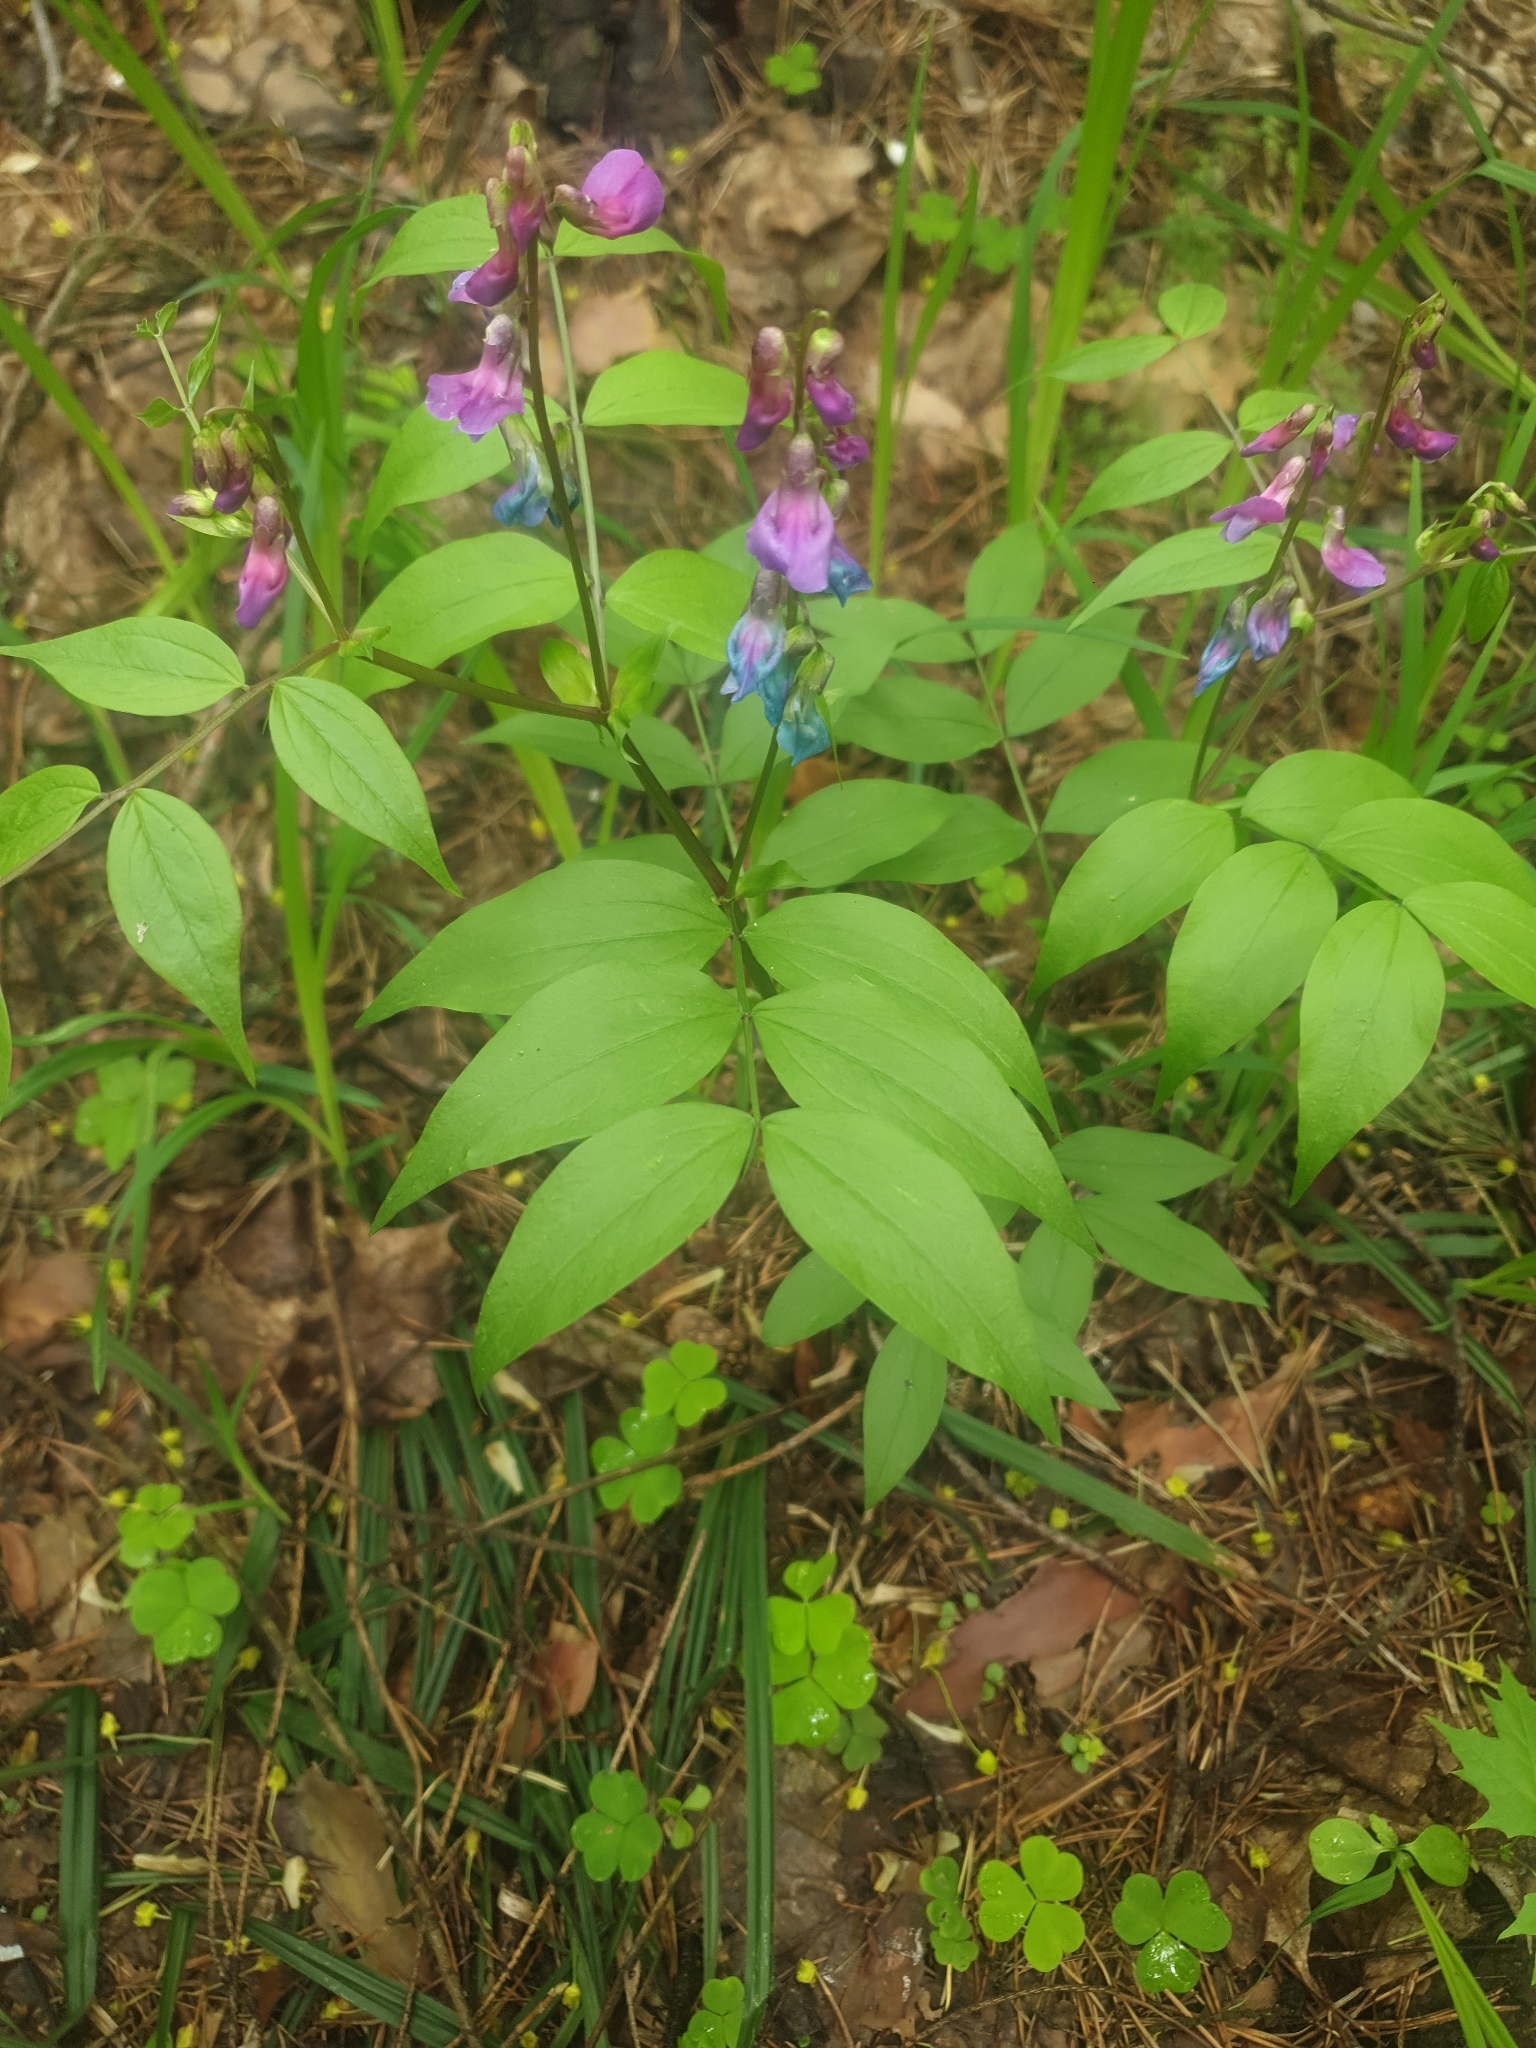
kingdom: Plantae
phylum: Tracheophyta
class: Magnoliopsida
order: Fabales
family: Fabaceae
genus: Lathyrus
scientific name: Lathyrus vernus
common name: Spring pea
